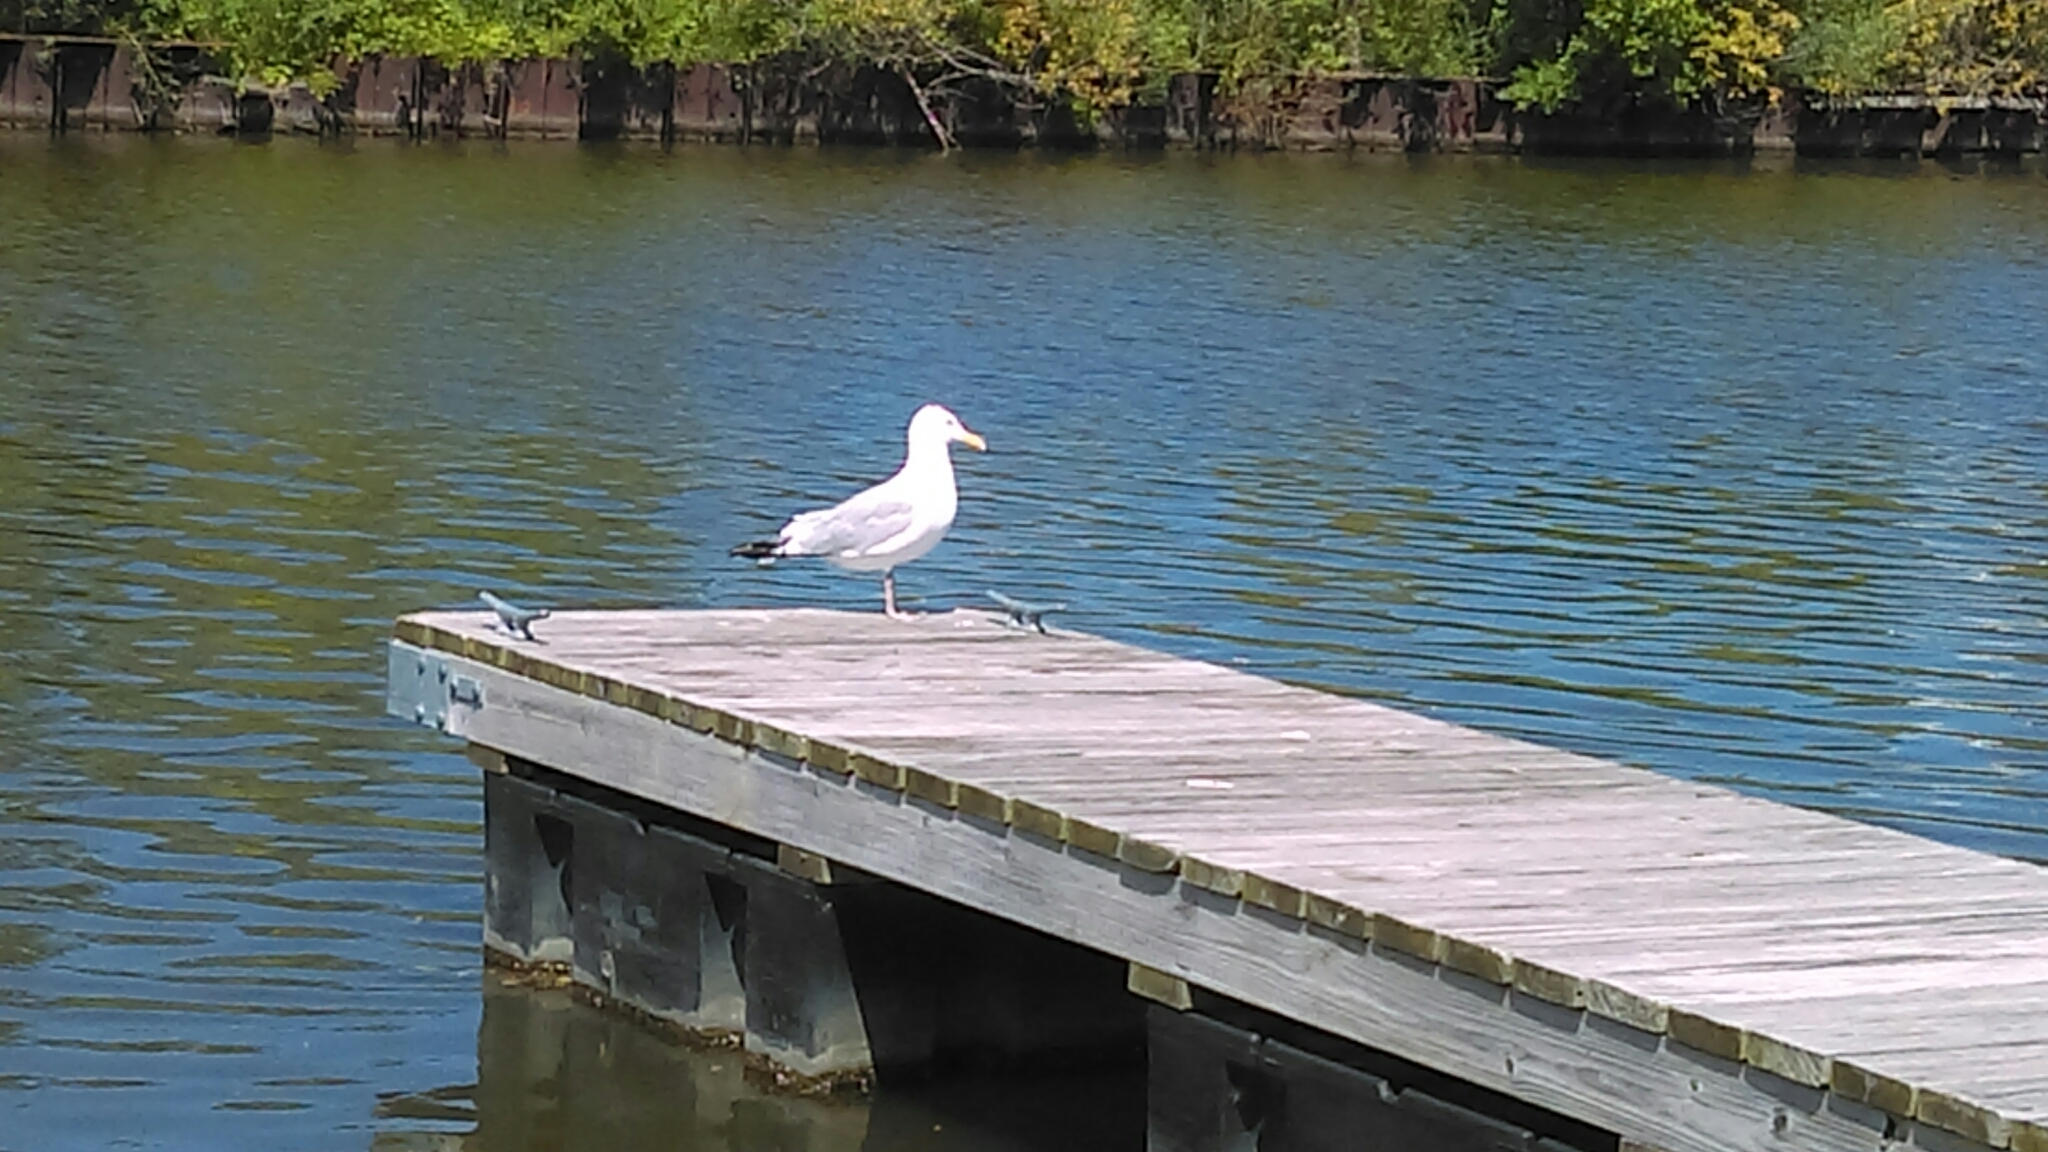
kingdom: Animalia
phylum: Chordata
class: Aves
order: Charadriiformes
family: Laridae
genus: Larus
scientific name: Larus argentatus
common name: Herring gull
